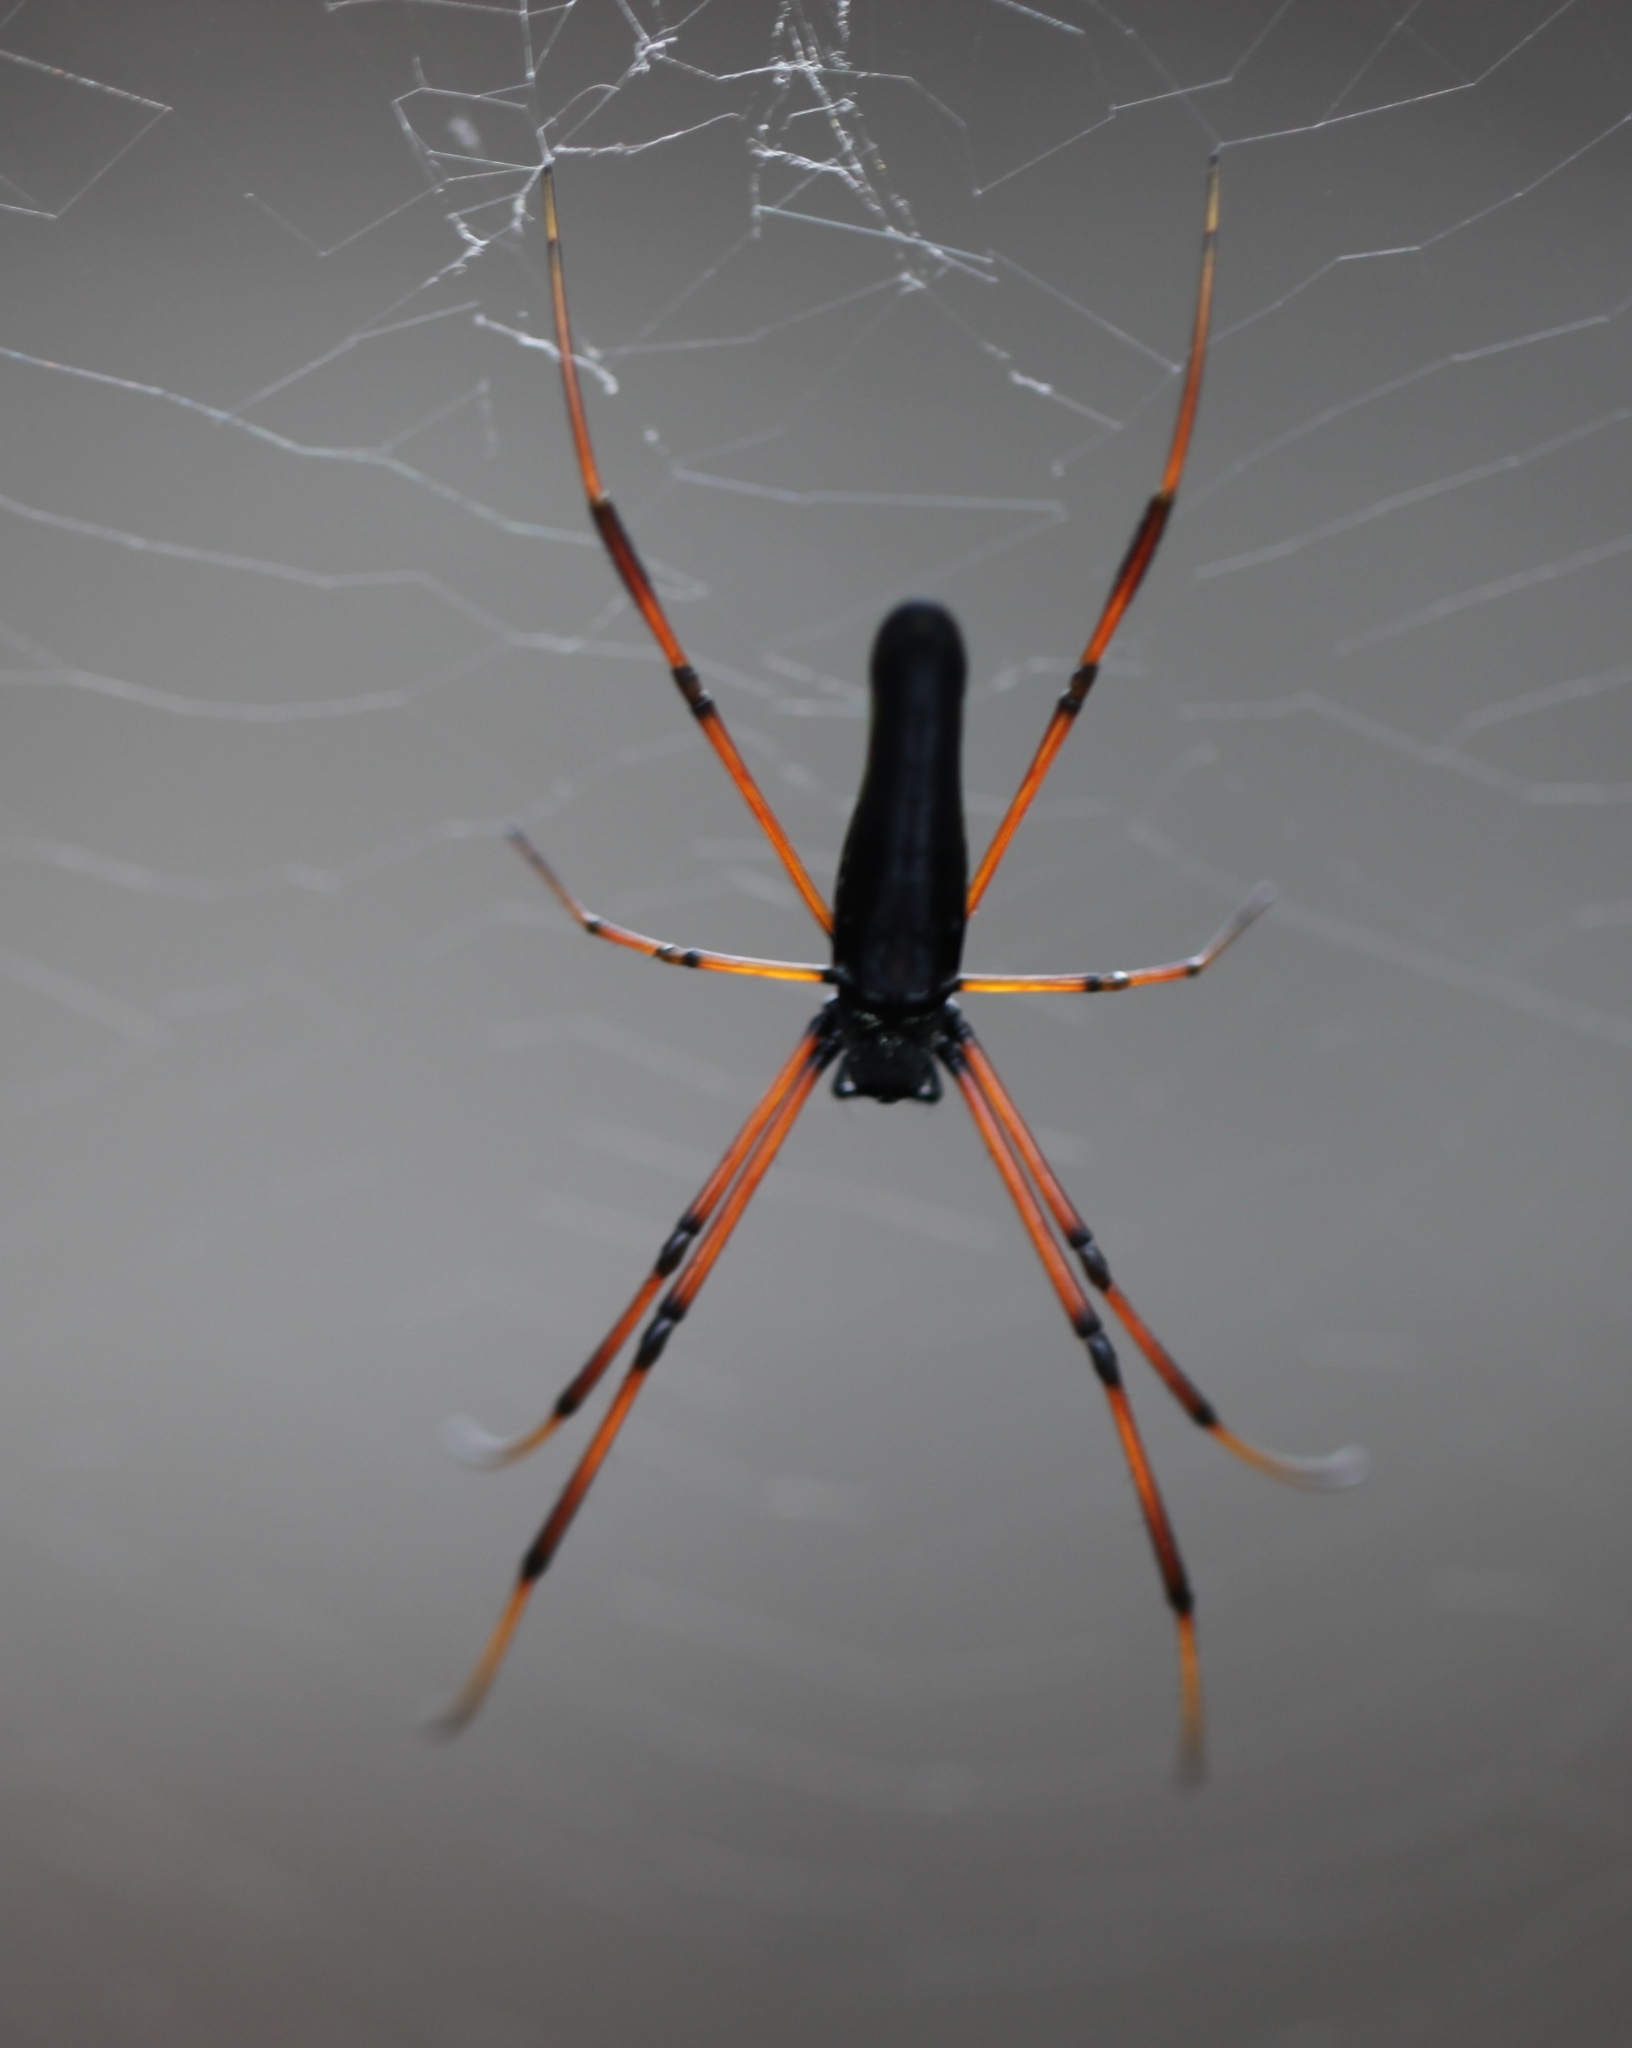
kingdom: Animalia
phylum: Arthropoda
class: Arachnida
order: Araneae
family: Araneidae
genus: Nephila
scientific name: Nephila kuhli
